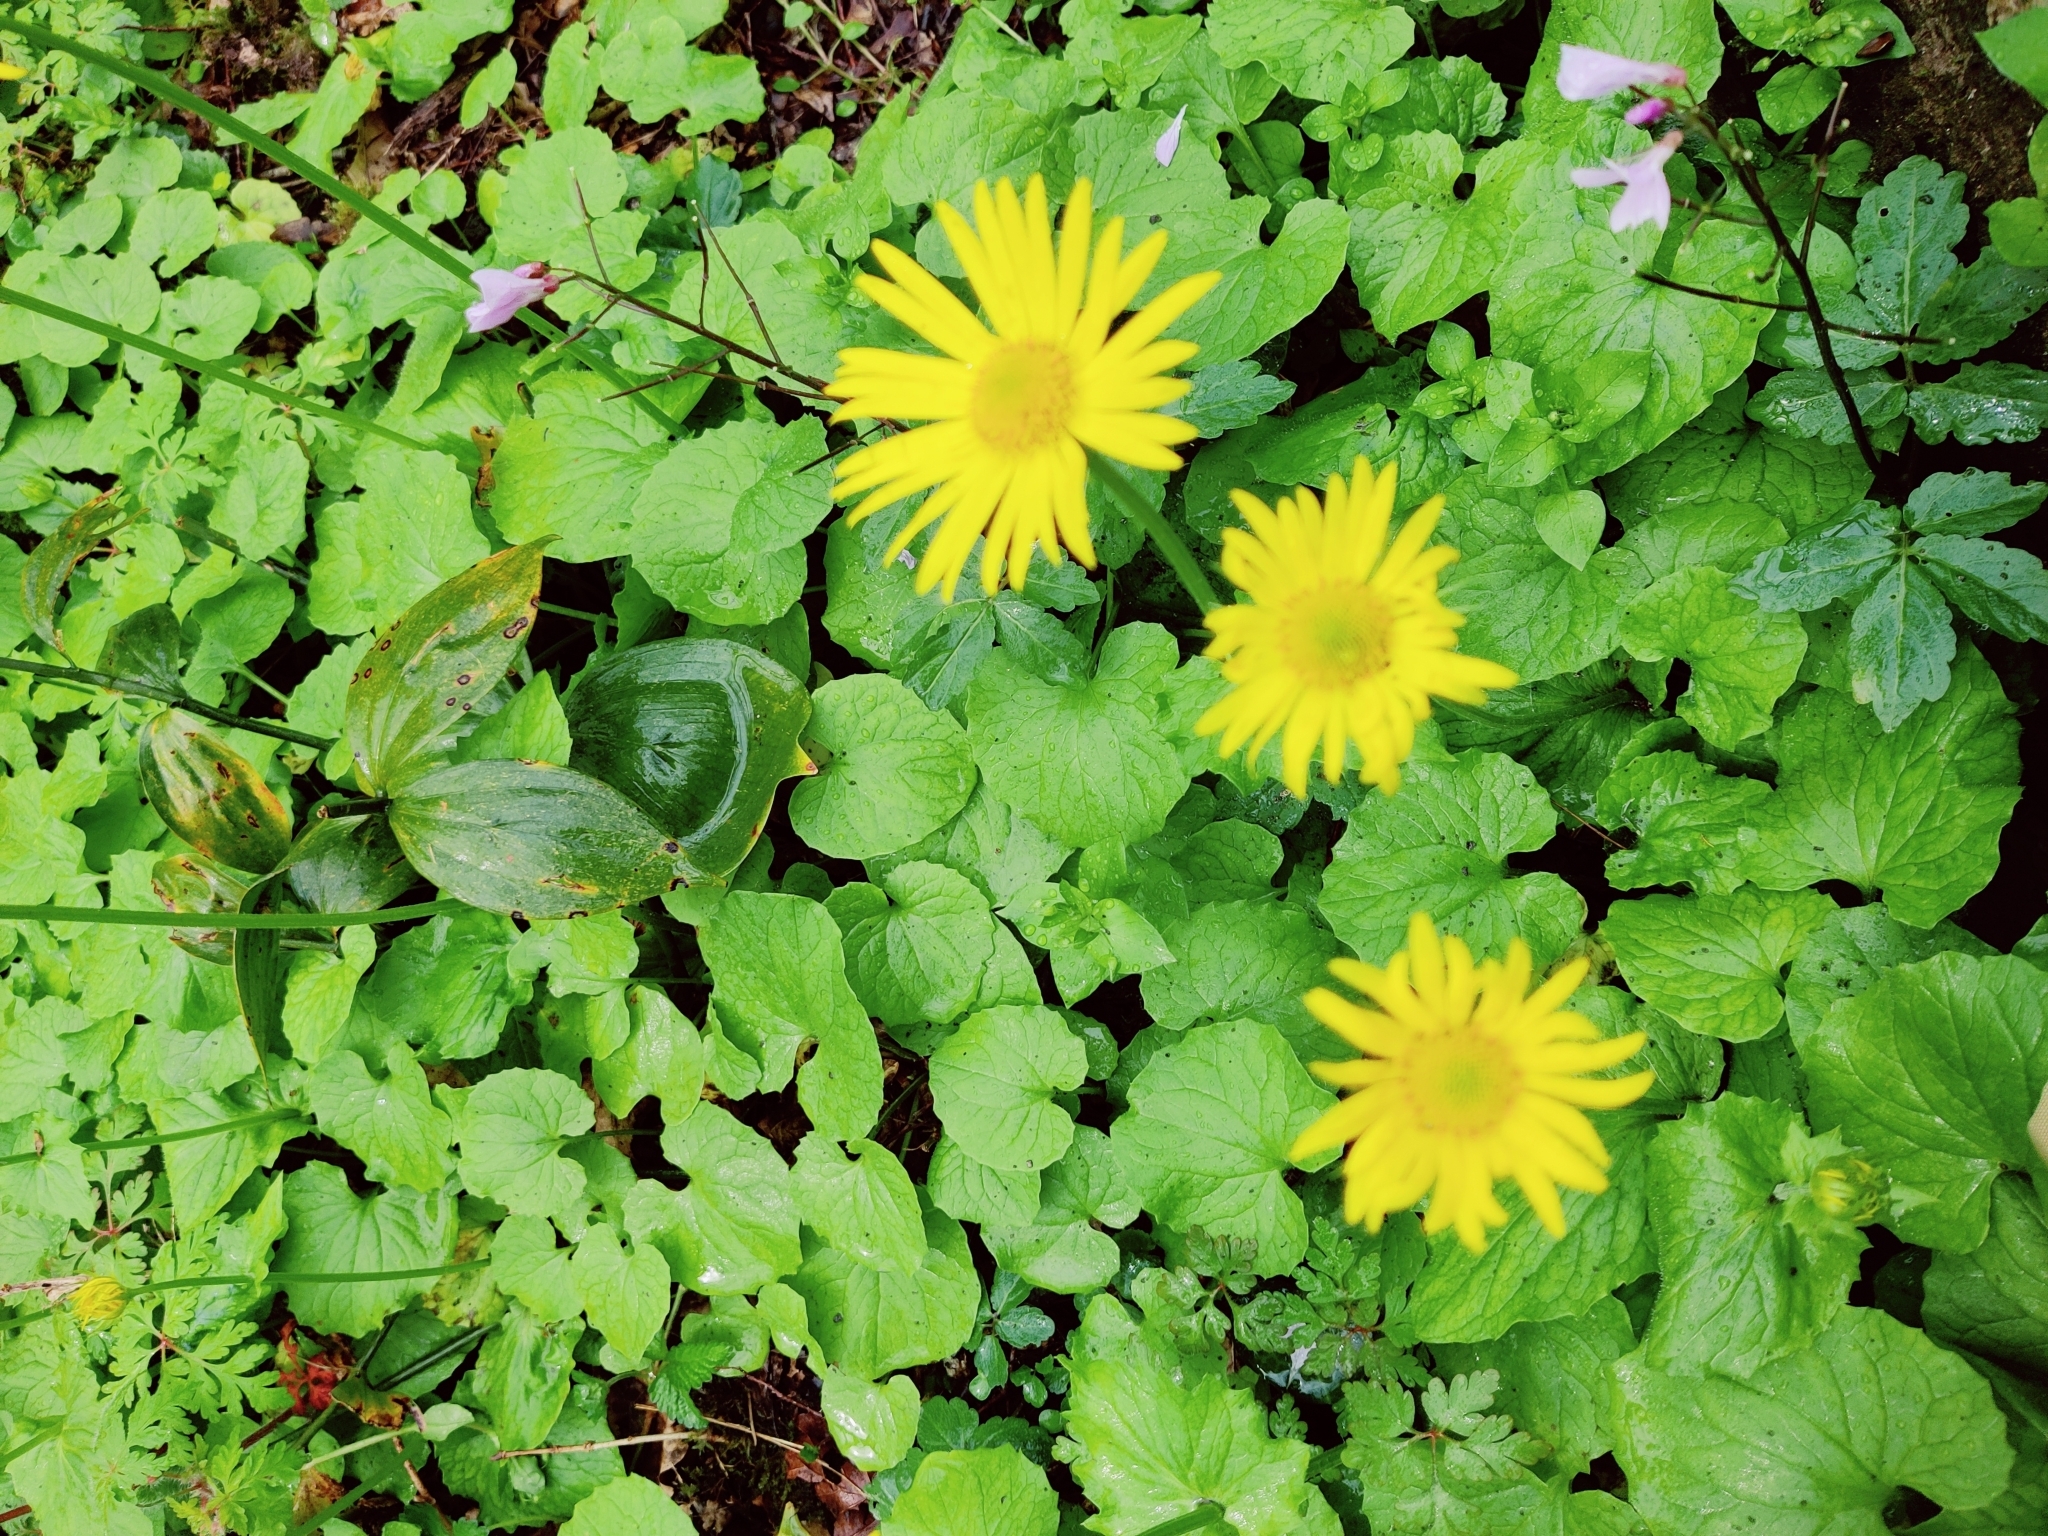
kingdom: Plantae
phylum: Tracheophyta
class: Magnoliopsida
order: Asterales
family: Asteraceae
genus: Doronicum
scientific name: Doronicum
